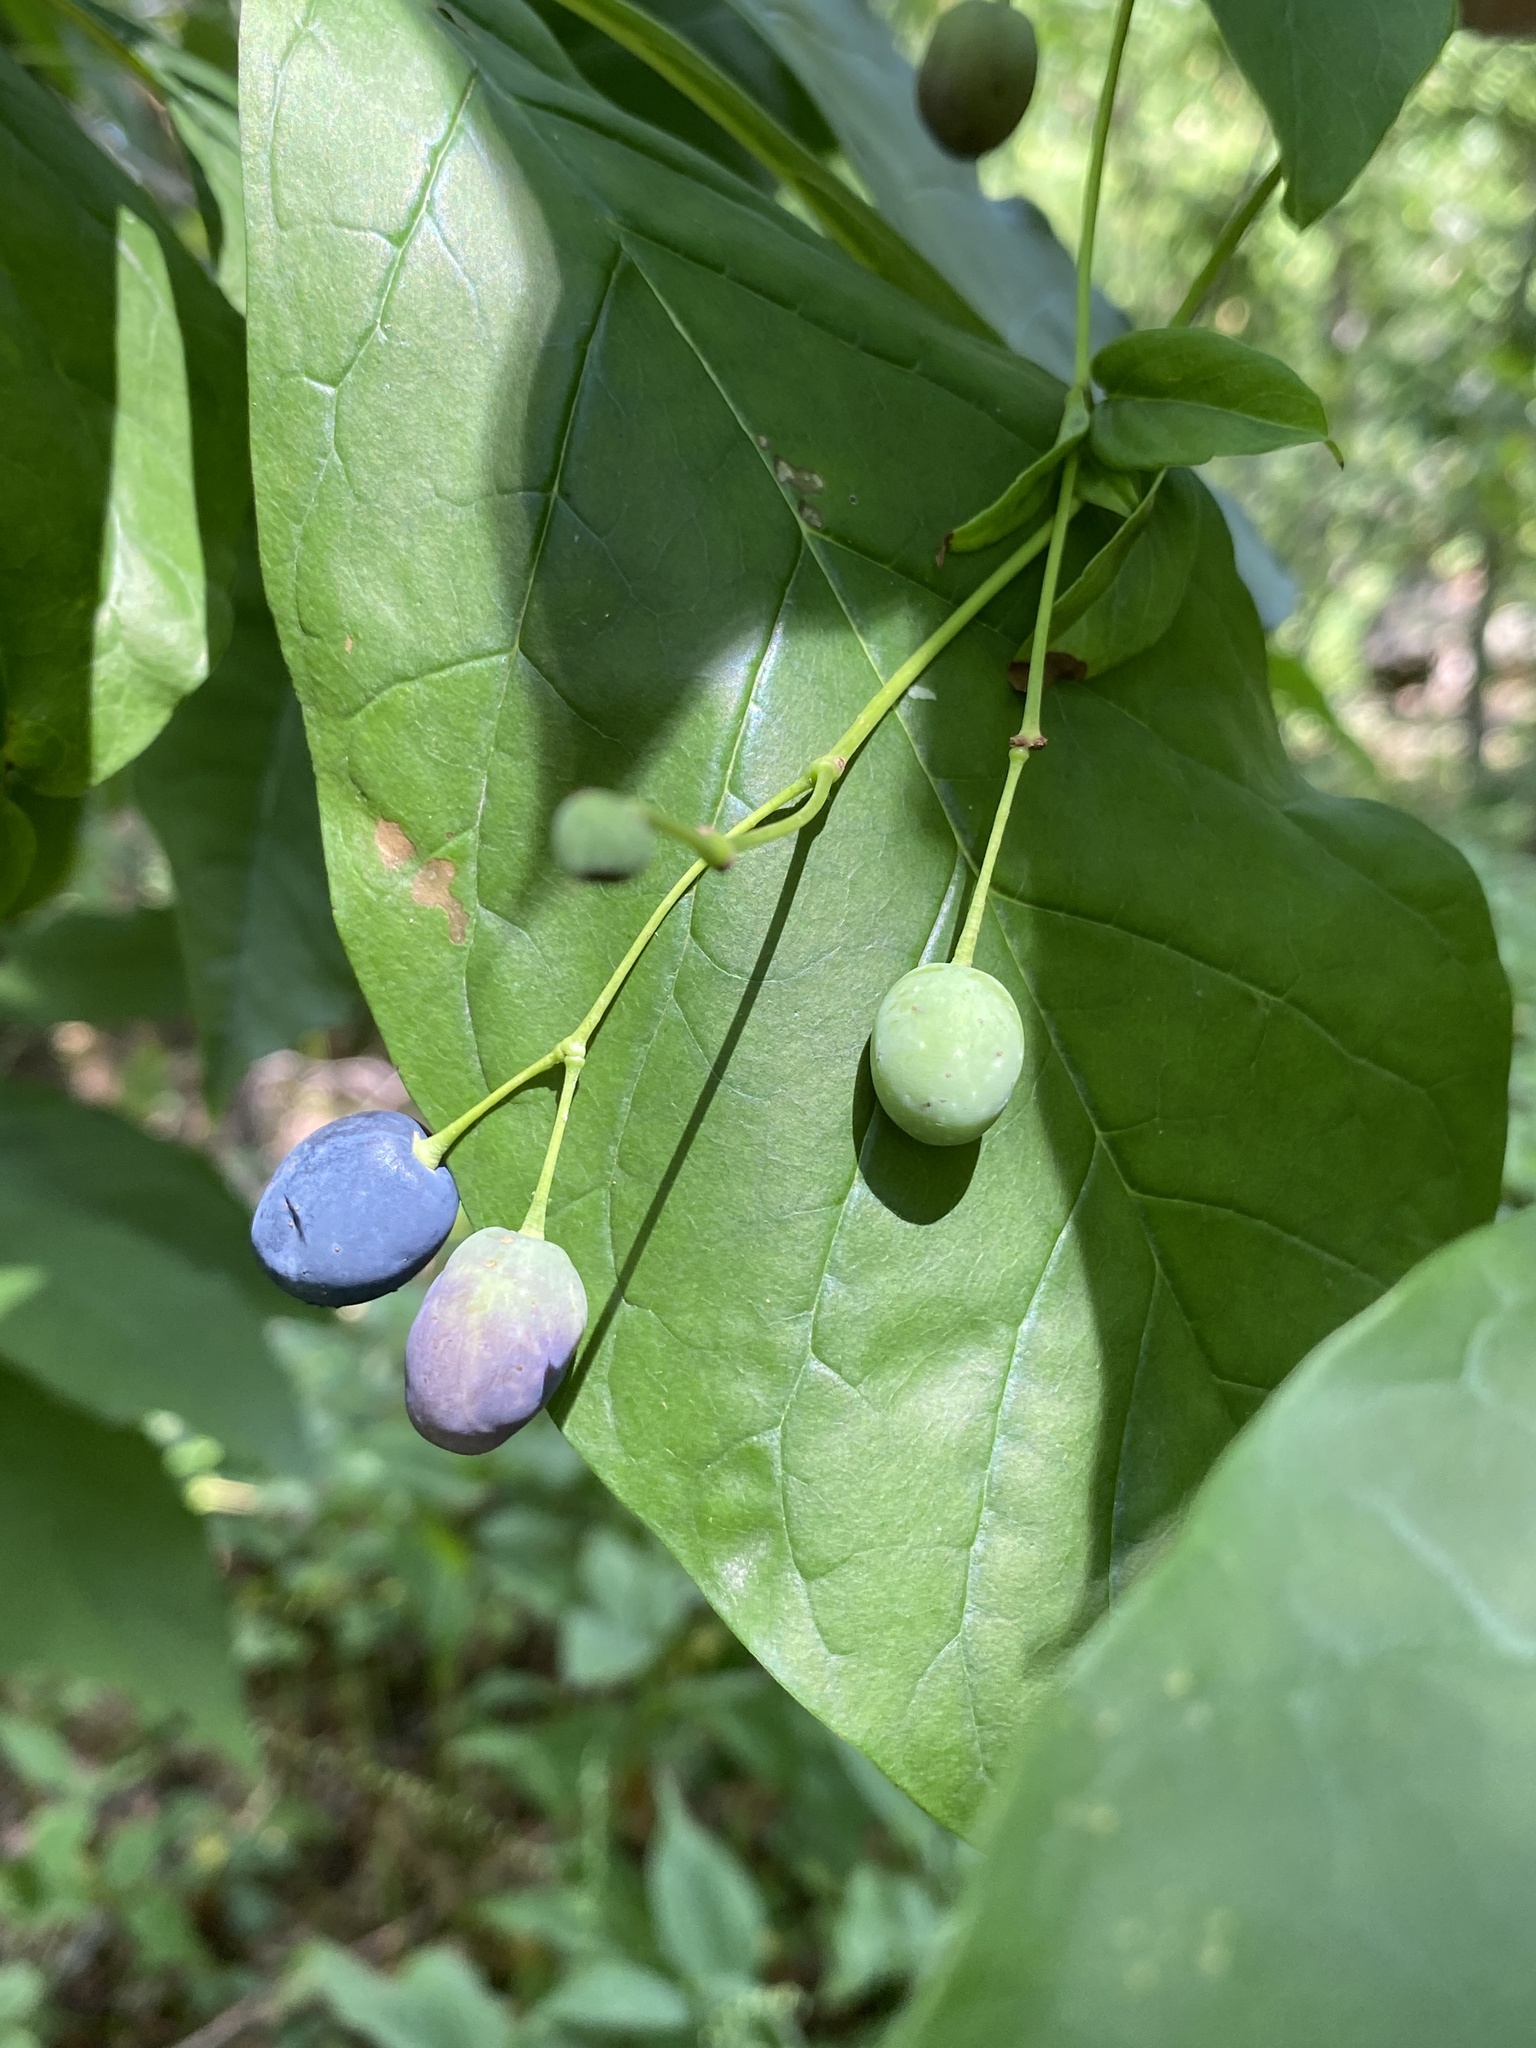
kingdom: Plantae
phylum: Tracheophyta
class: Magnoliopsida
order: Lamiales
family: Oleaceae
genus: Chionanthus
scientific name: Chionanthus virginicus
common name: American fringetree
